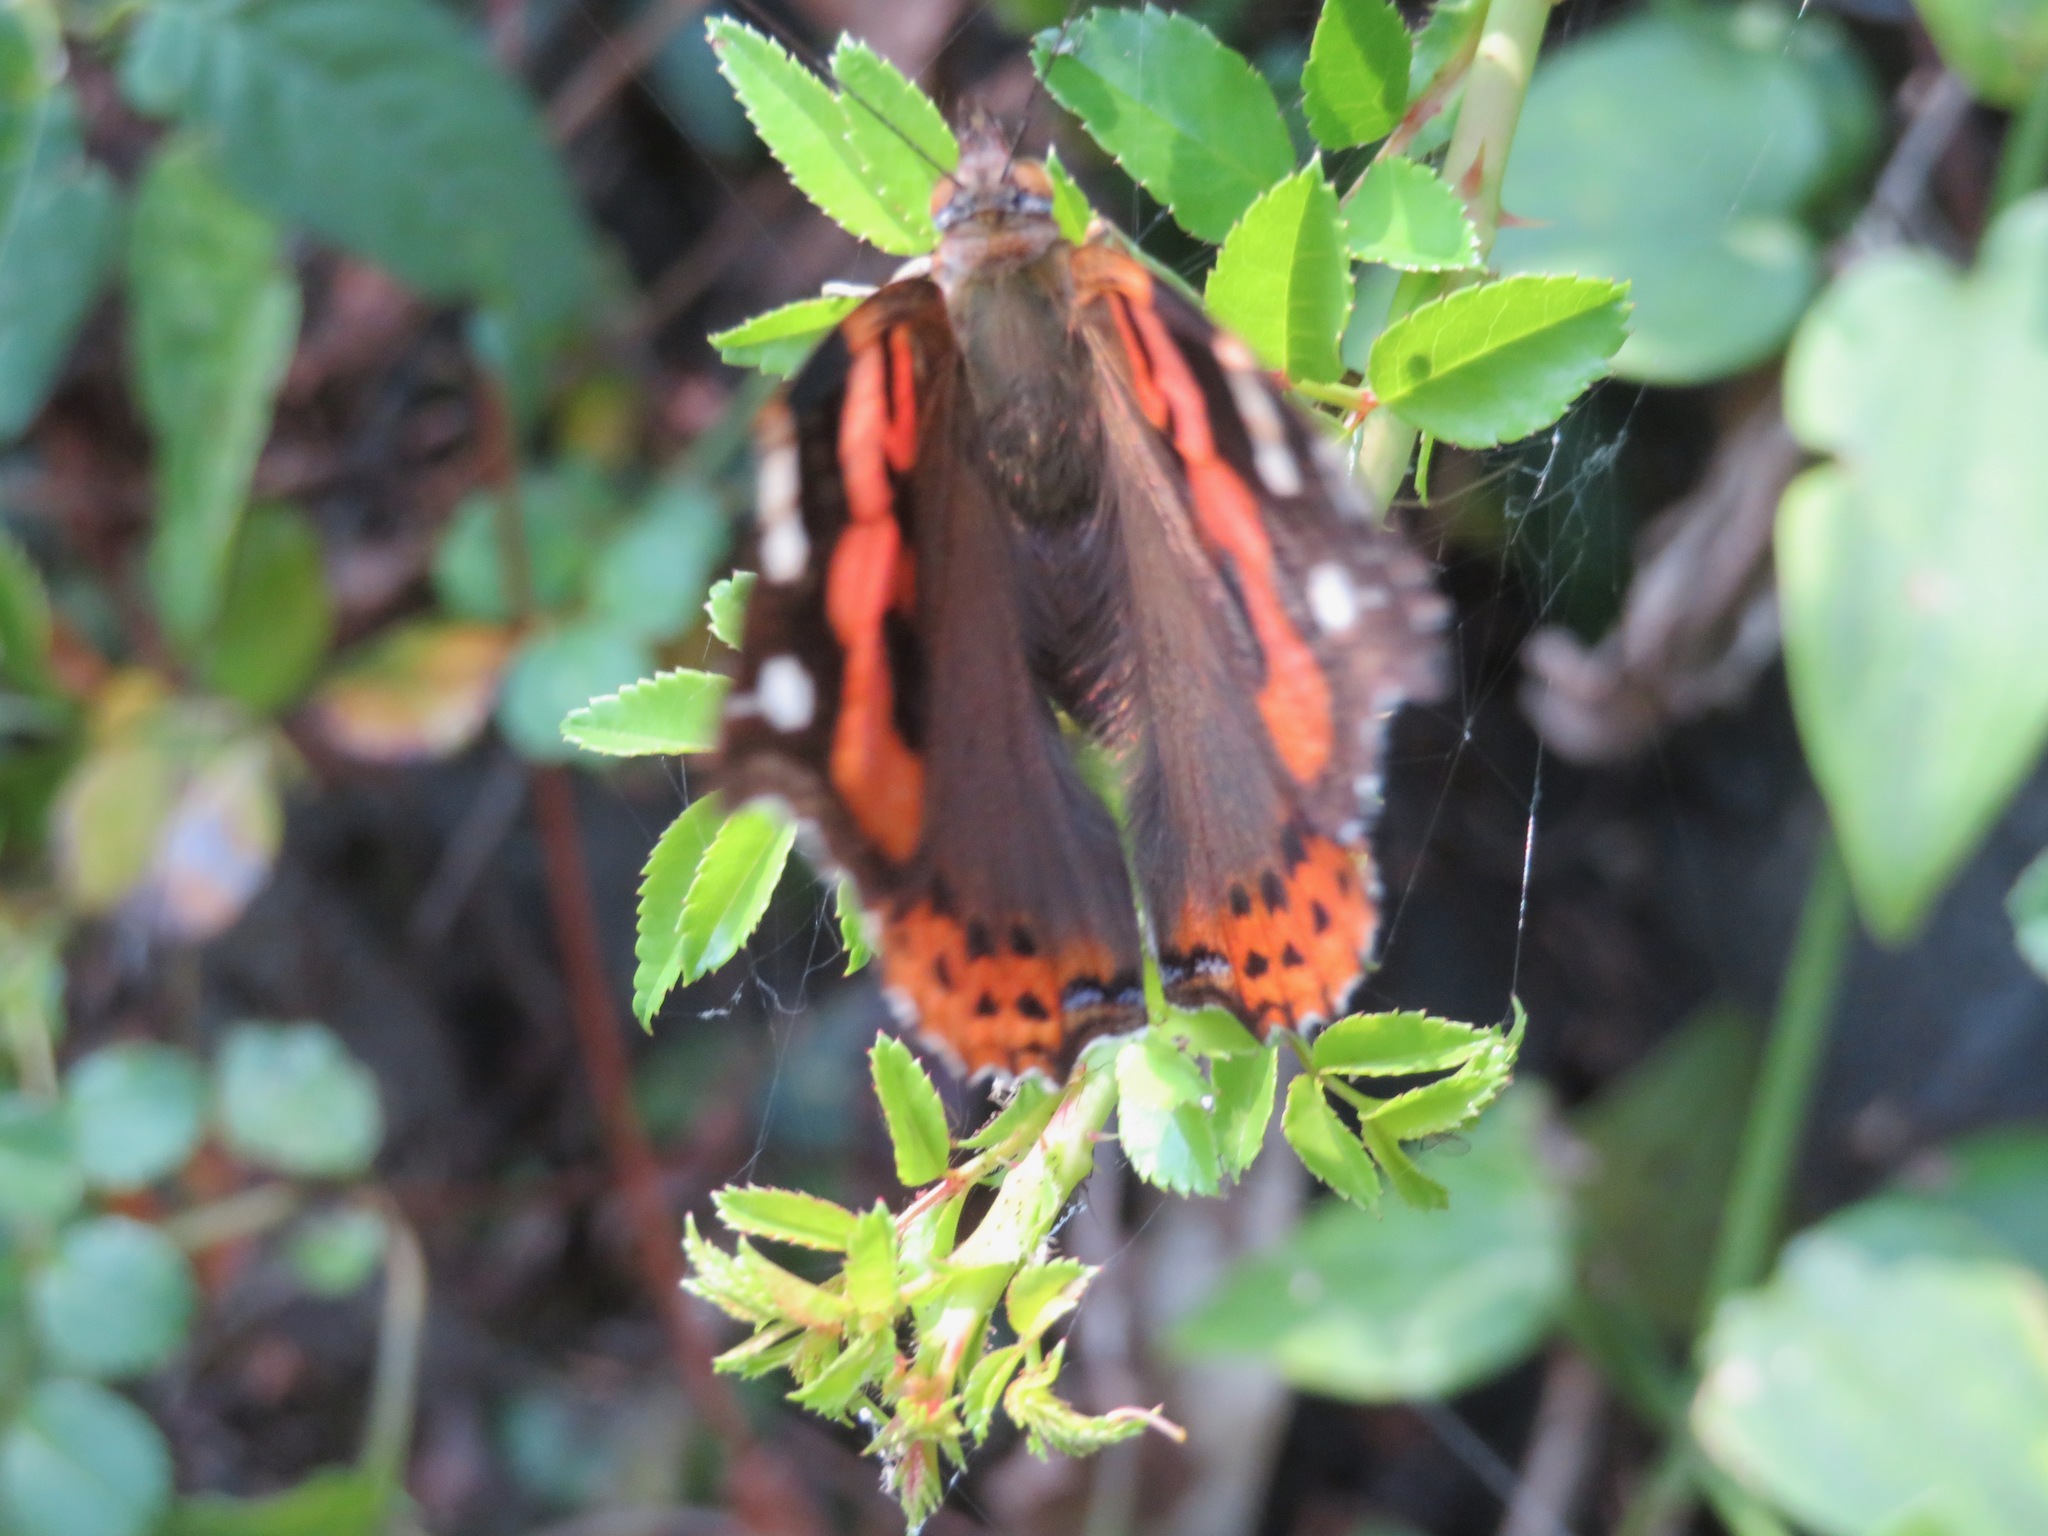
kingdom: Animalia
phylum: Arthropoda
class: Insecta
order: Lepidoptera
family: Nymphalidae
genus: Vanessa
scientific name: Vanessa indica
